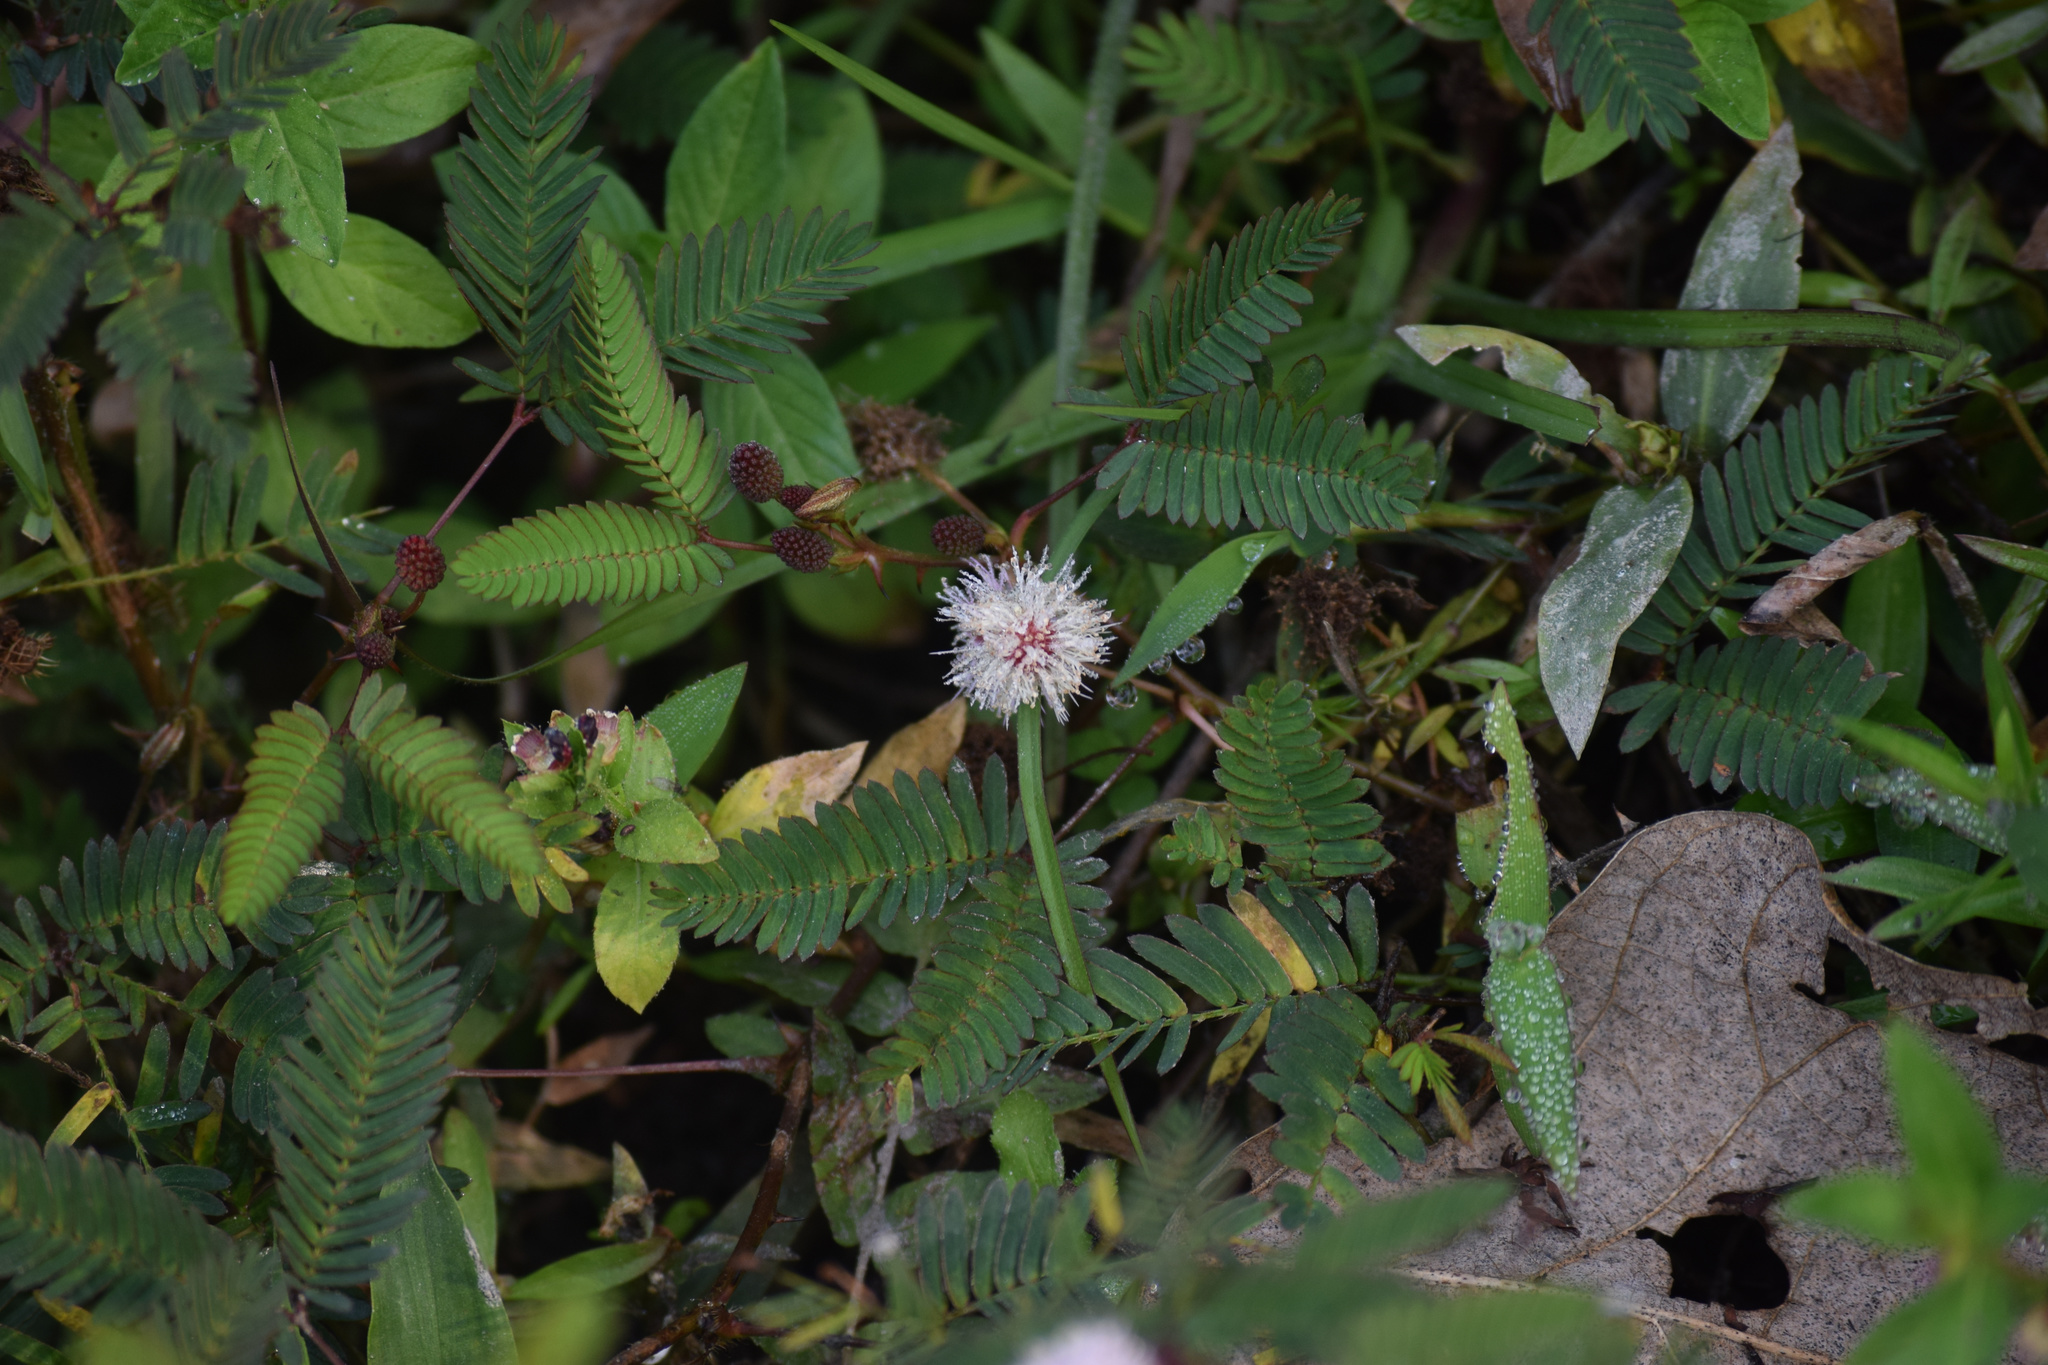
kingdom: Plantae
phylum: Tracheophyta
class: Magnoliopsida
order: Fabales
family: Fabaceae
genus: Mimosa
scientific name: Mimosa pudica
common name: Sensitive plant
